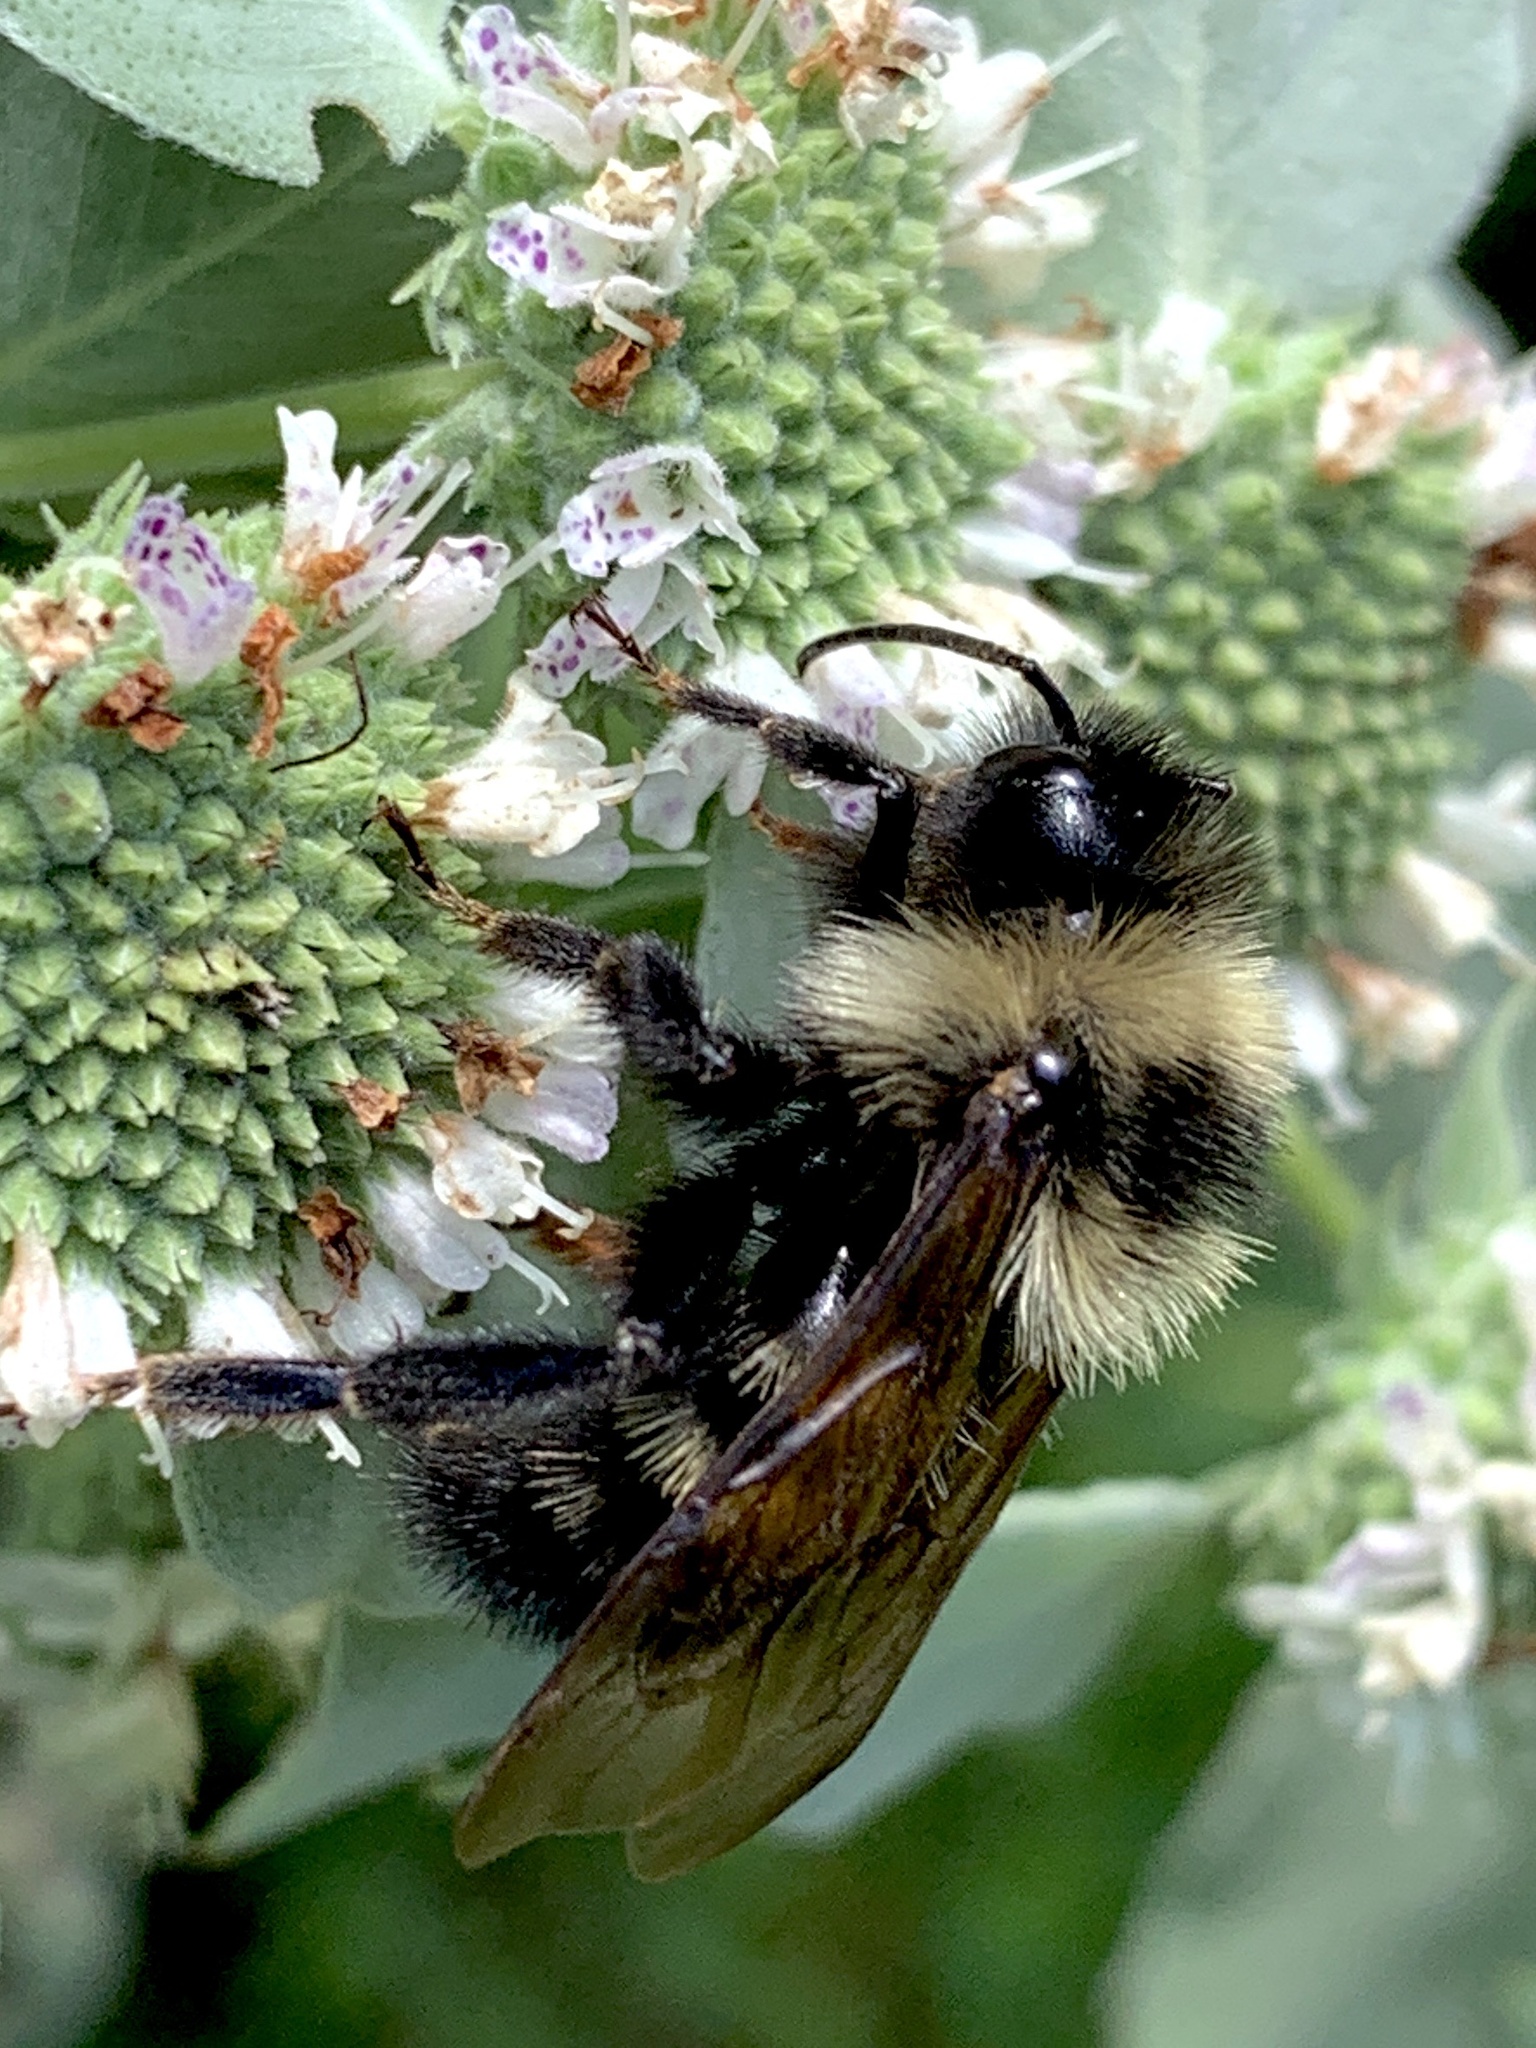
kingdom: Animalia
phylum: Arthropoda
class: Insecta
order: Hymenoptera
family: Apidae
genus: Bombus
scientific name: Bombus citrinus
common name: Lemon cuckoo bumble bee
